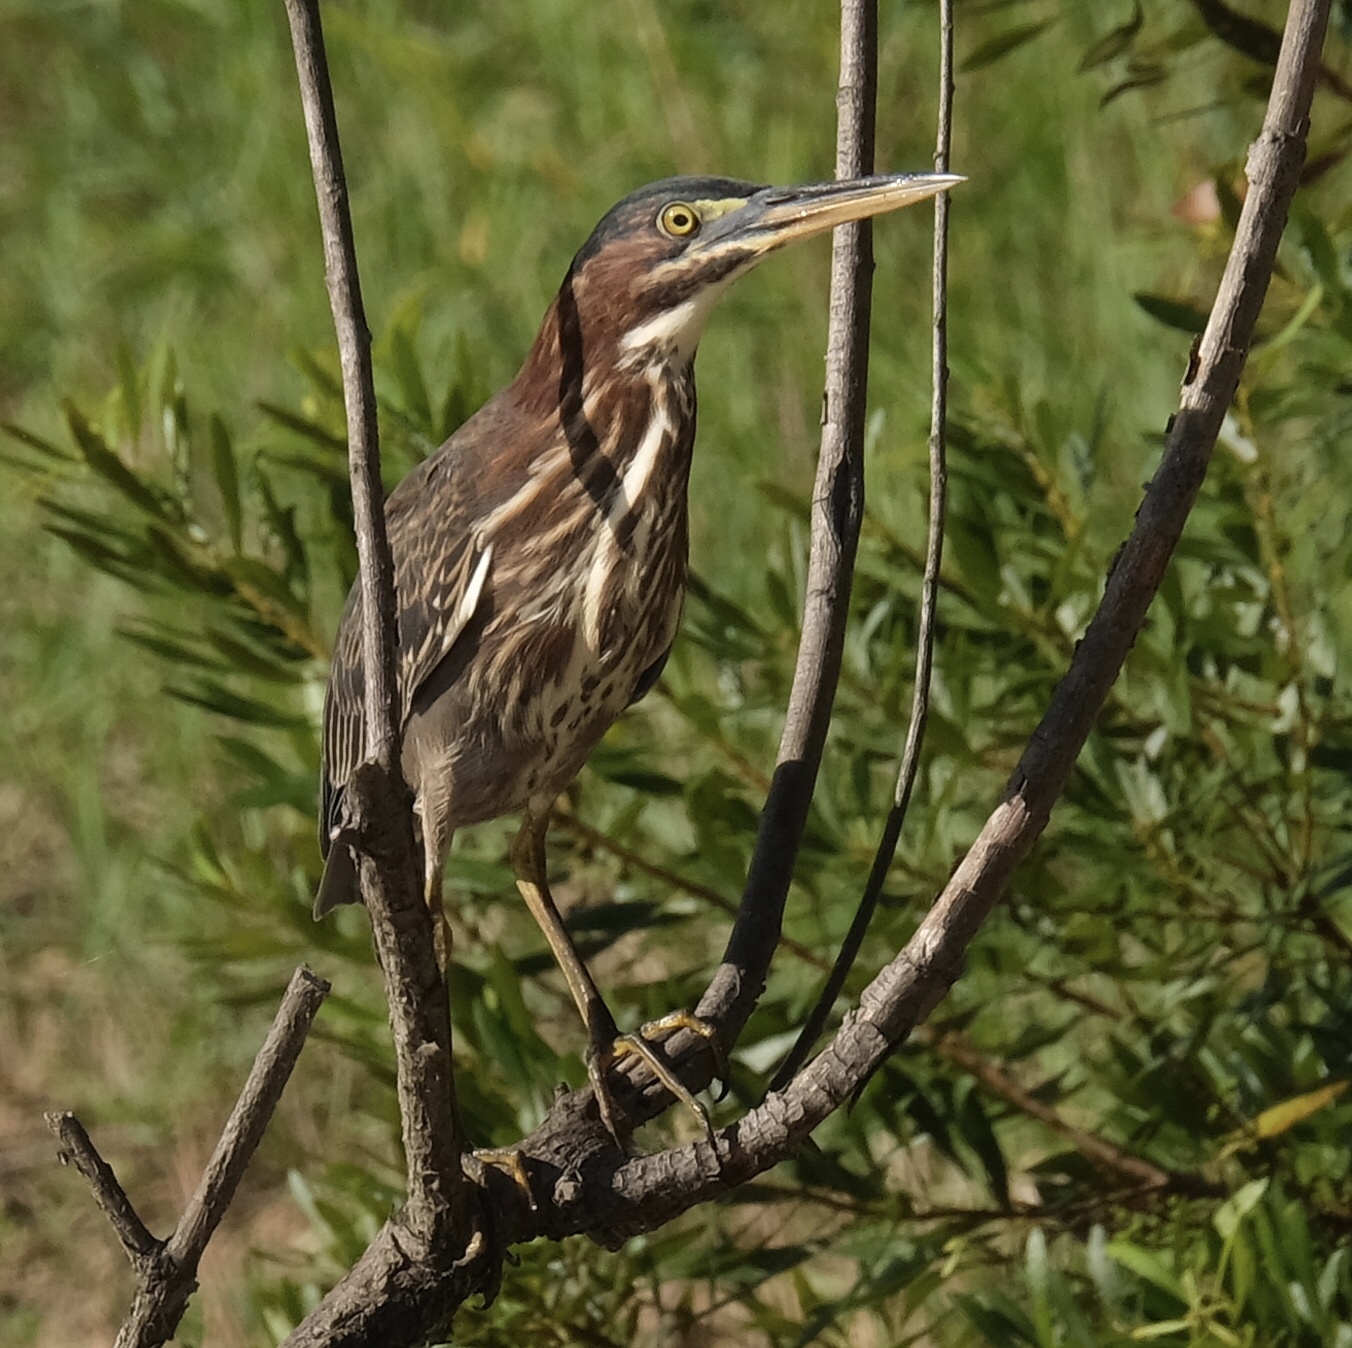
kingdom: Animalia
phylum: Chordata
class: Aves
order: Pelecaniformes
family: Ardeidae
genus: Butorides
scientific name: Butorides virescens
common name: Green heron
